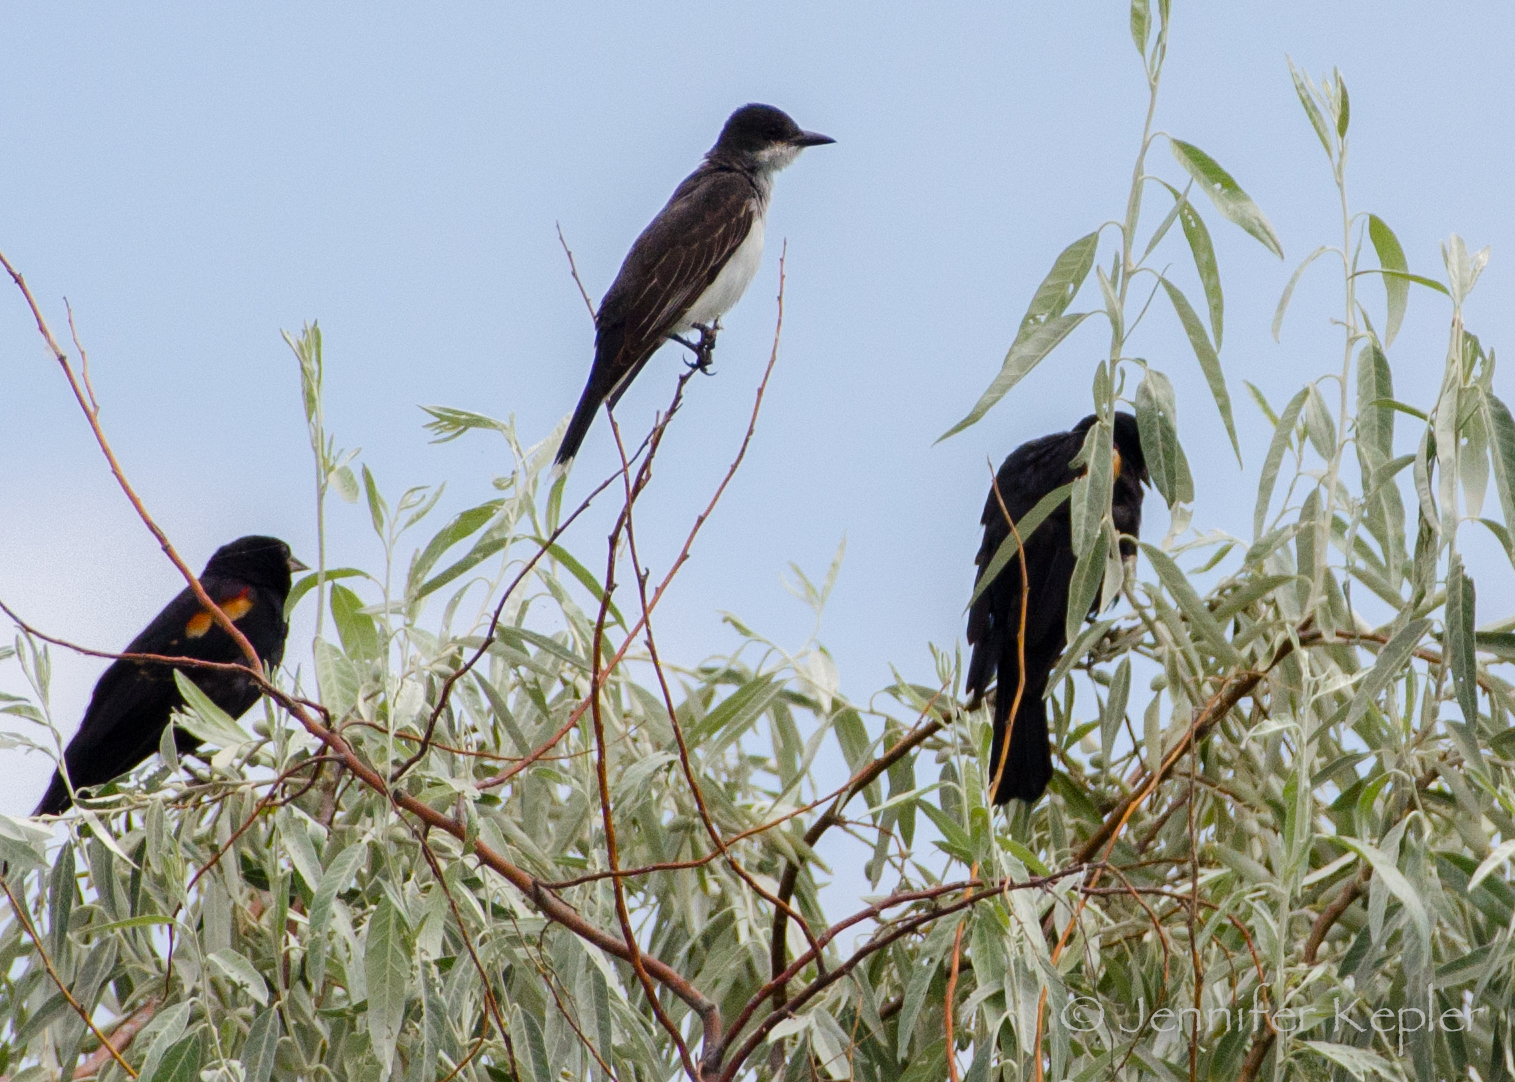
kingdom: Animalia
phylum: Chordata
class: Aves
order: Passeriformes
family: Icteridae
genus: Agelaius
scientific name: Agelaius phoeniceus
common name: Red-winged blackbird
